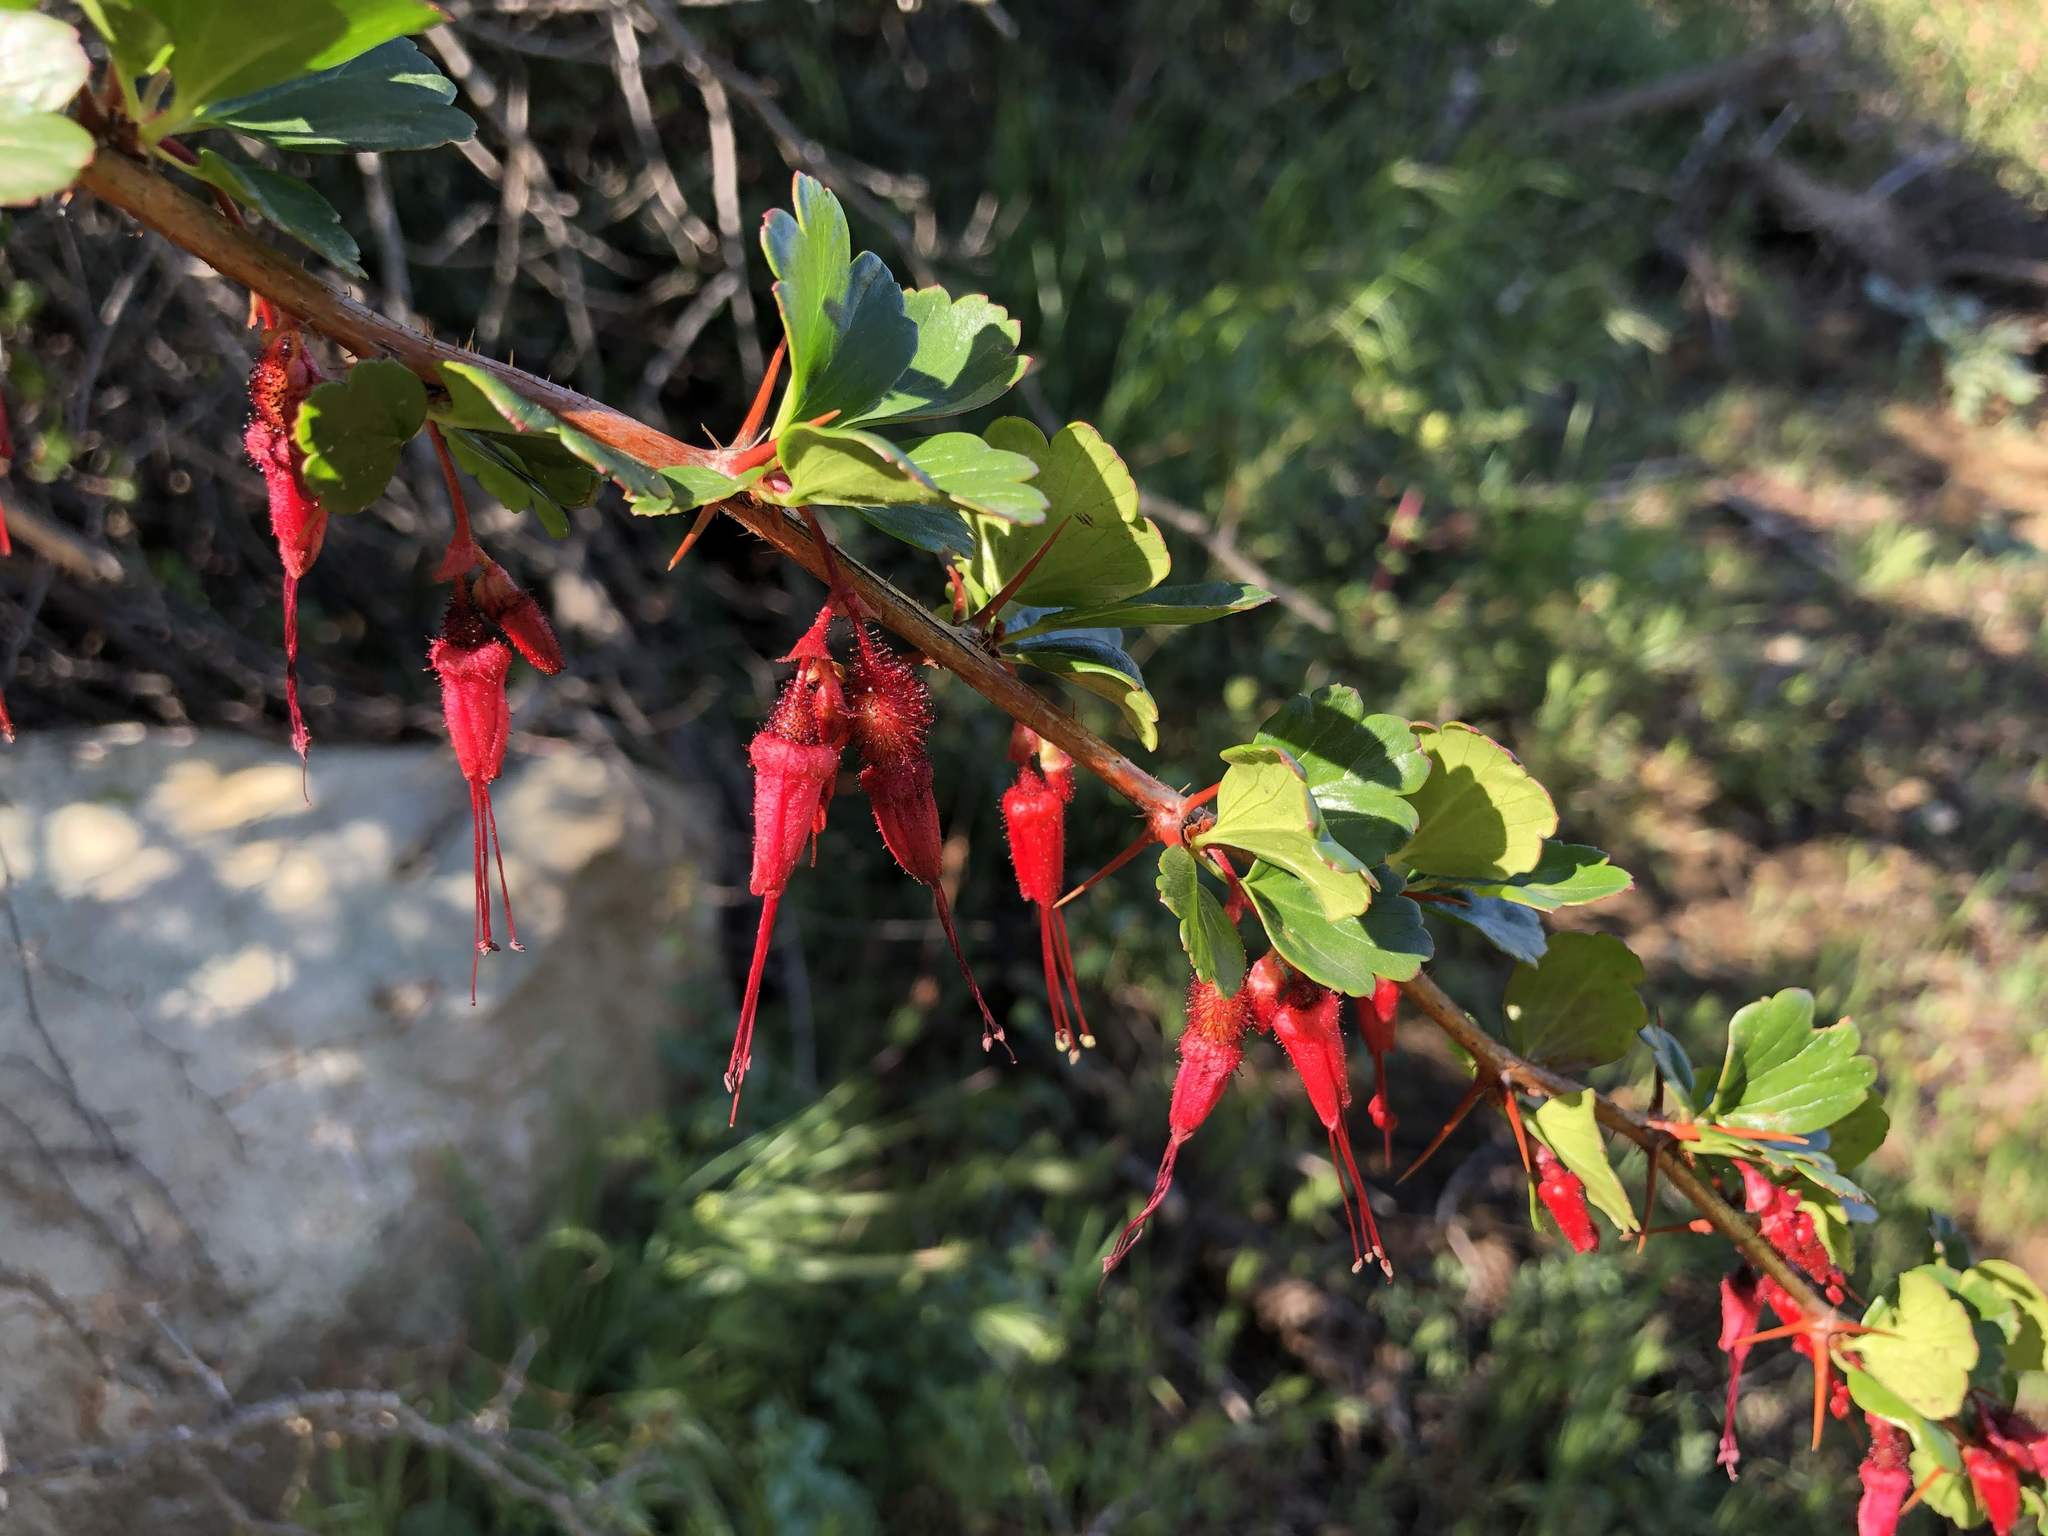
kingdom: Plantae
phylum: Tracheophyta
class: Magnoliopsida
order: Saxifragales
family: Grossulariaceae
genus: Ribes
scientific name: Ribes speciosum
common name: Fuchsia-flower gooseberry
